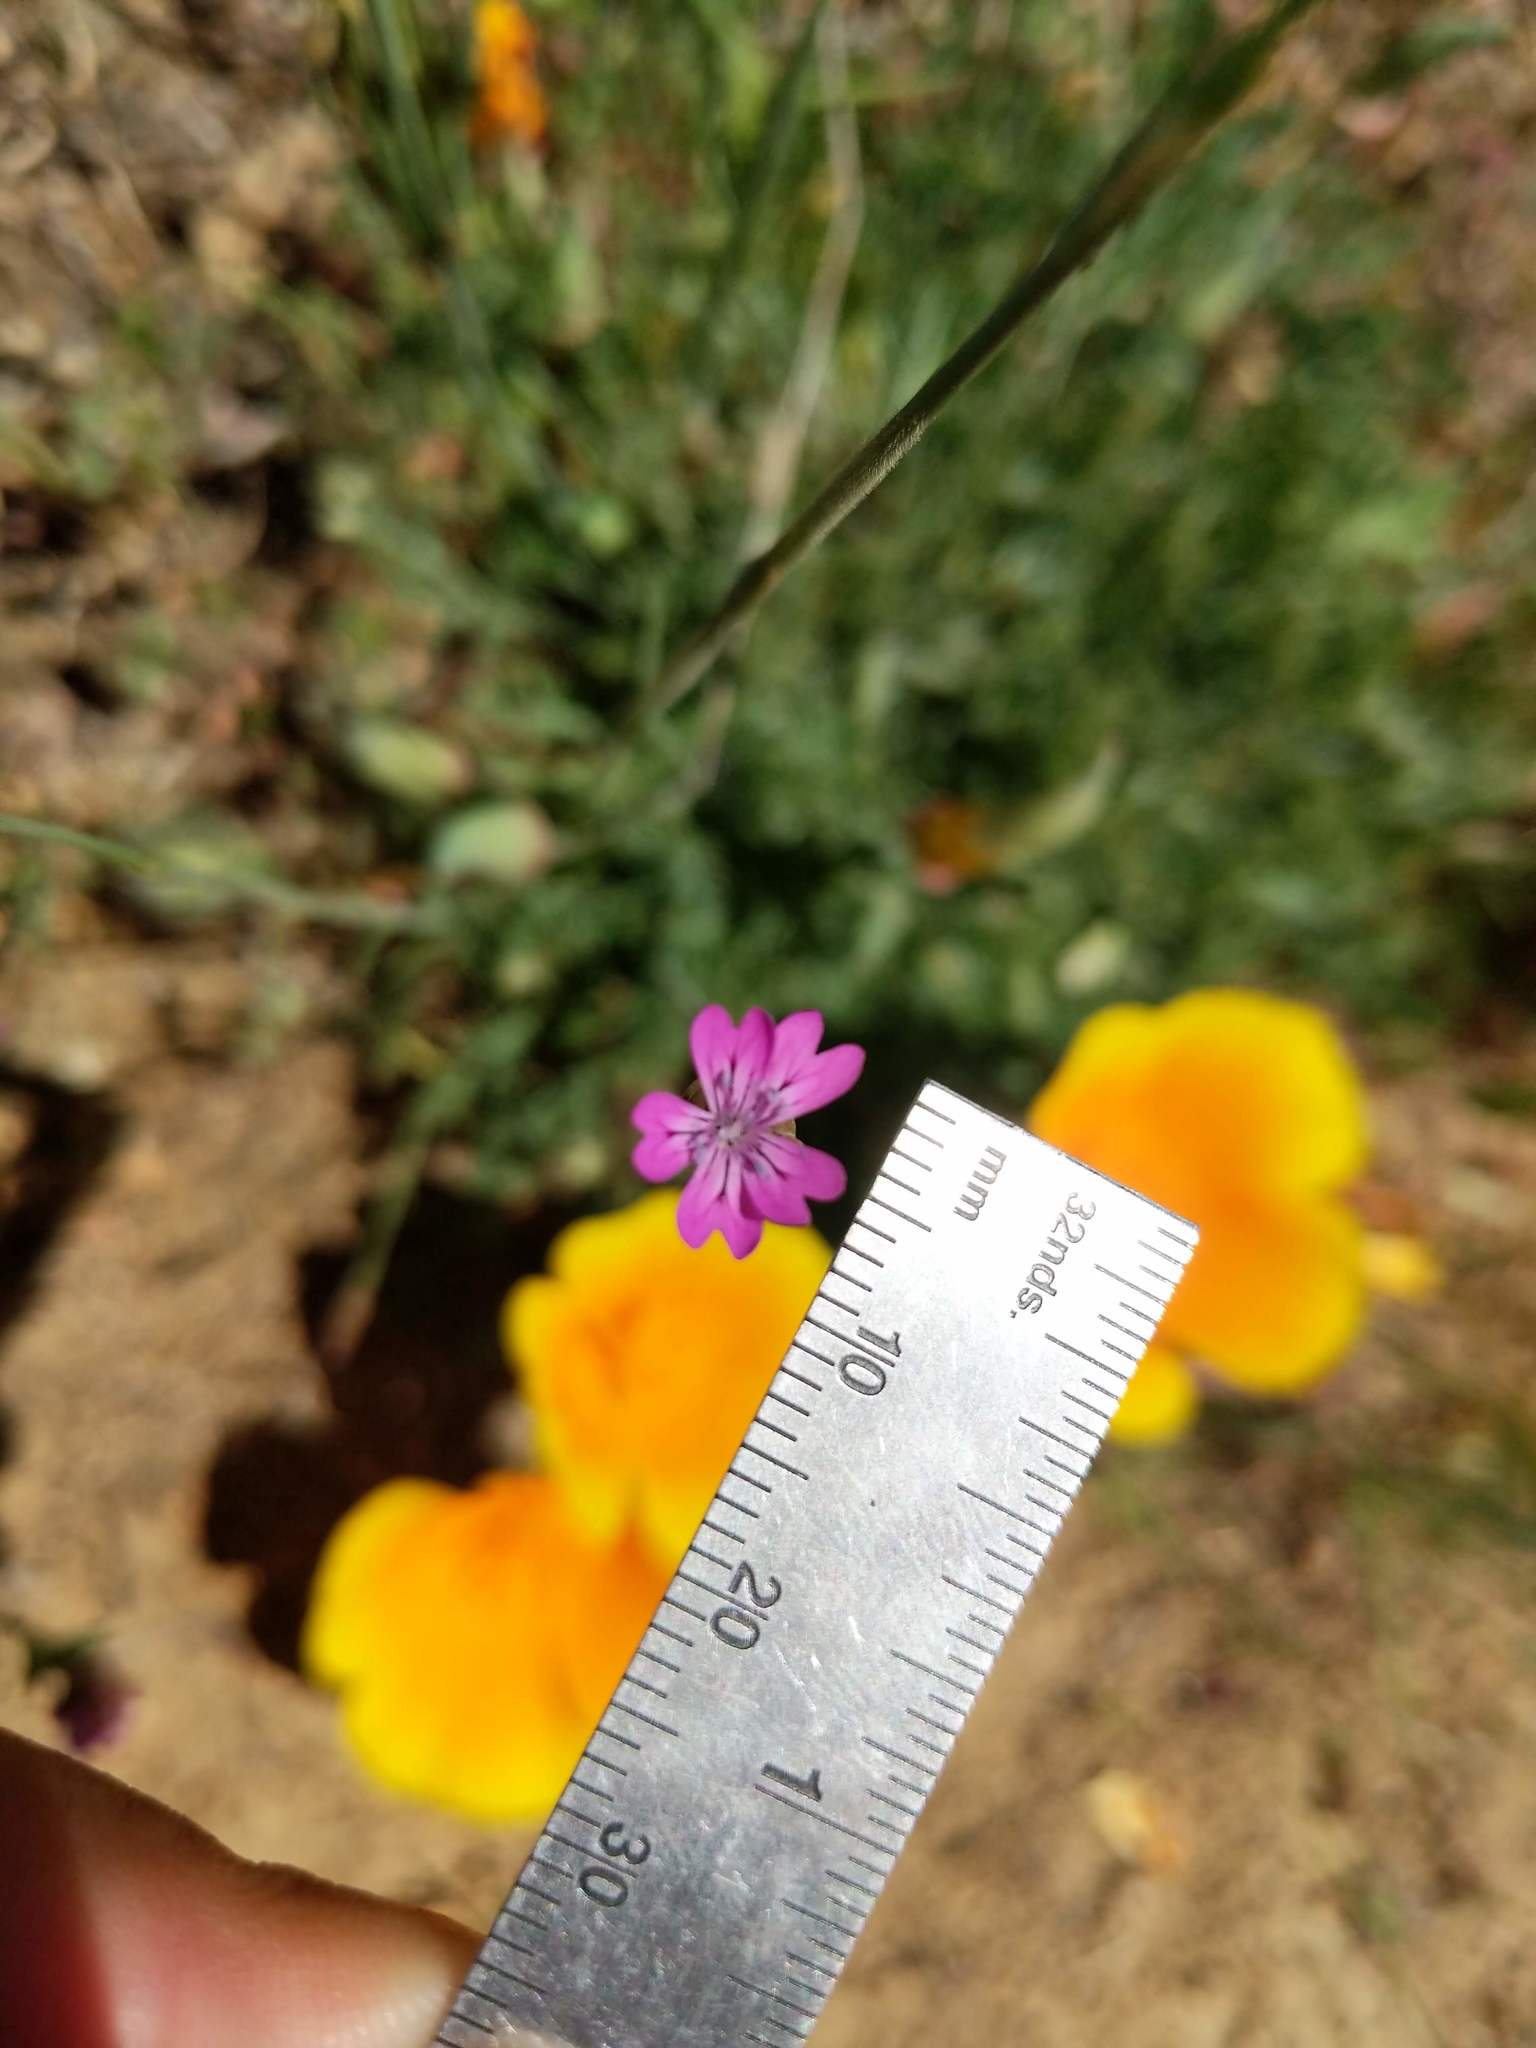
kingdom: Plantae
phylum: Tracheophyta
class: Magnoliopsida
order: Caryophyllales
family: Caryophyllaceae
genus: Petrorhagia
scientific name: Petrorhagia dubia
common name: Hairypink
